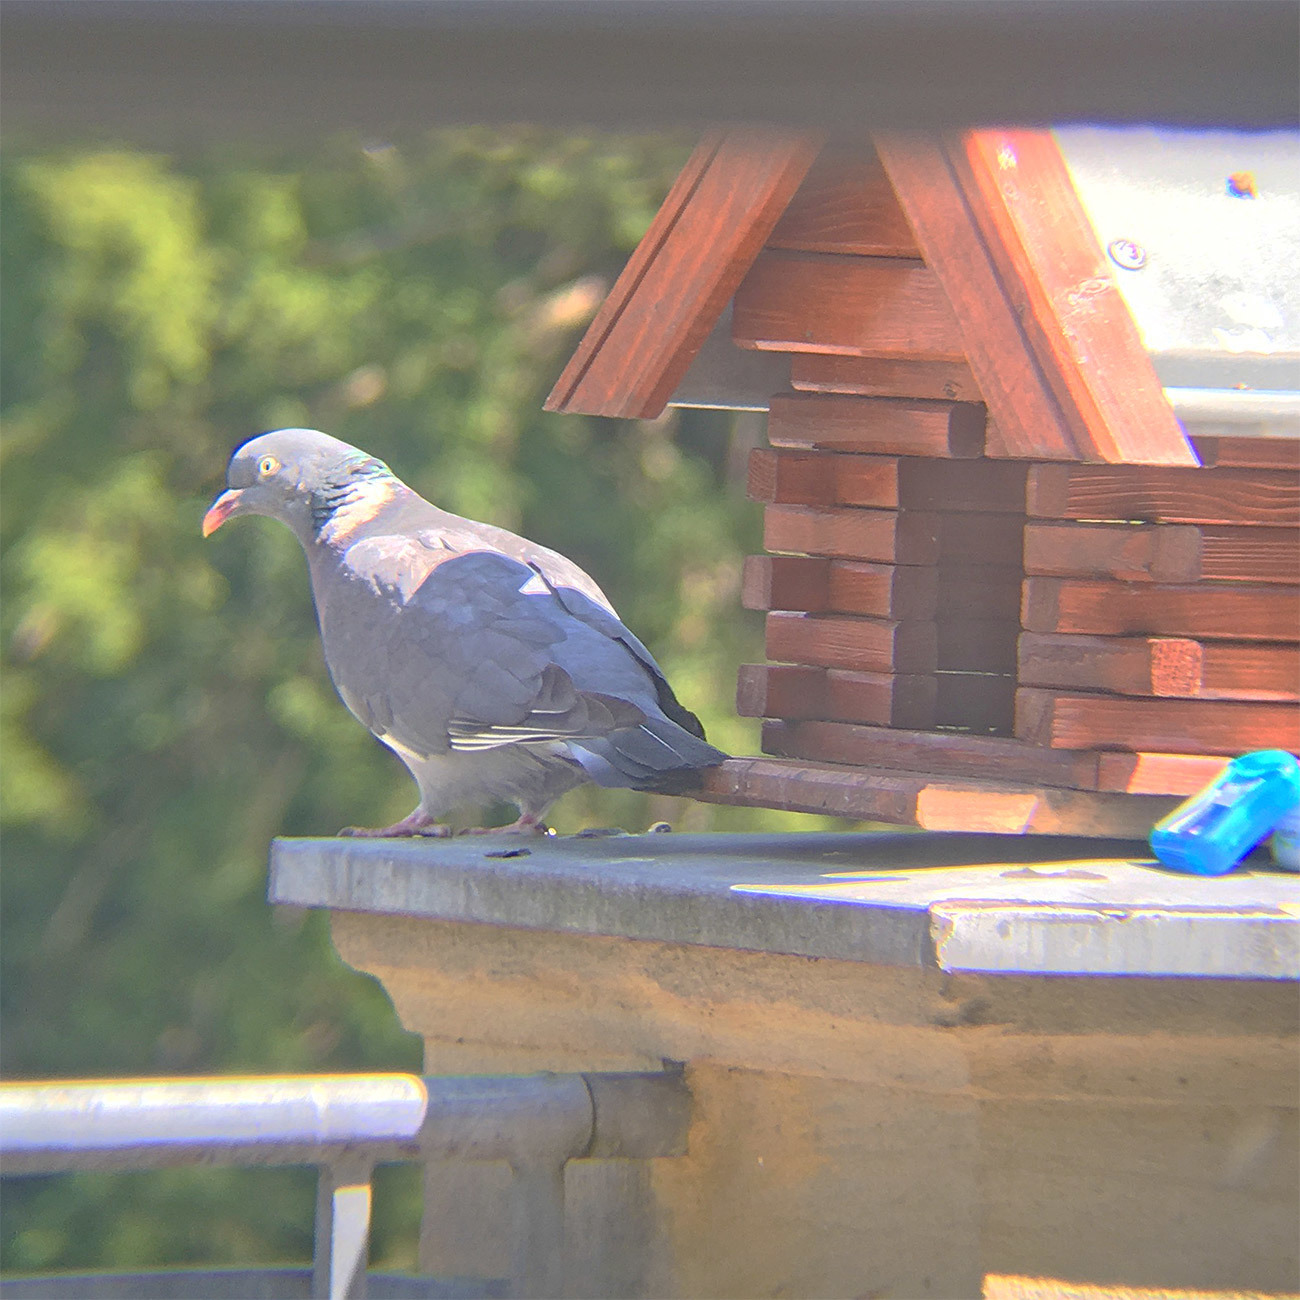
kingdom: Animalia
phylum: Chordata
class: Aves
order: Columbiformes
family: Columbidae
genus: Columba
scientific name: Columba palumbus
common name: Common wood pigeon
